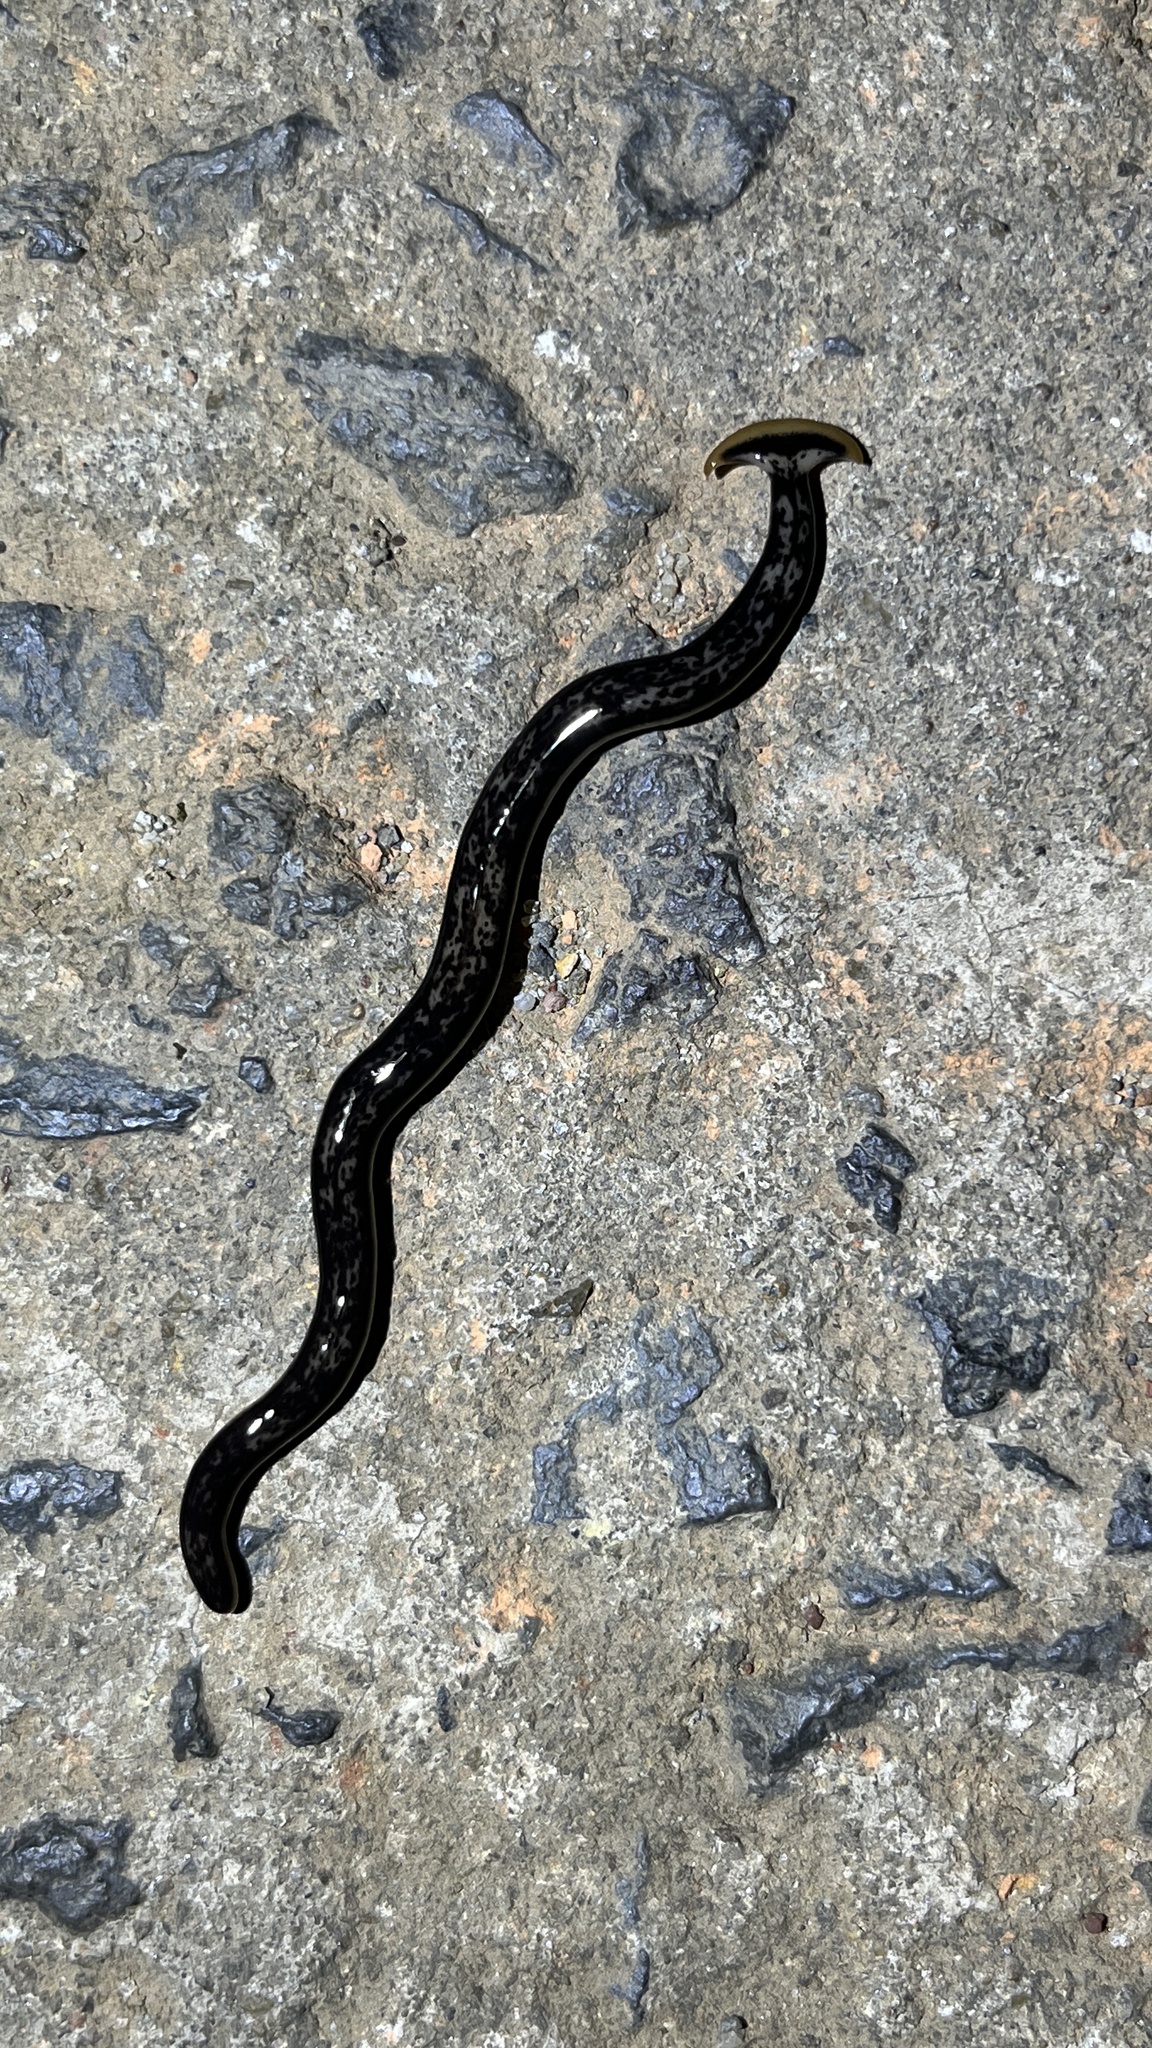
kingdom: Animalia
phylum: Platyhelminthes
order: Tricladida
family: Geoplanidae
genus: Bipalium
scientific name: Bipalium marginatum
